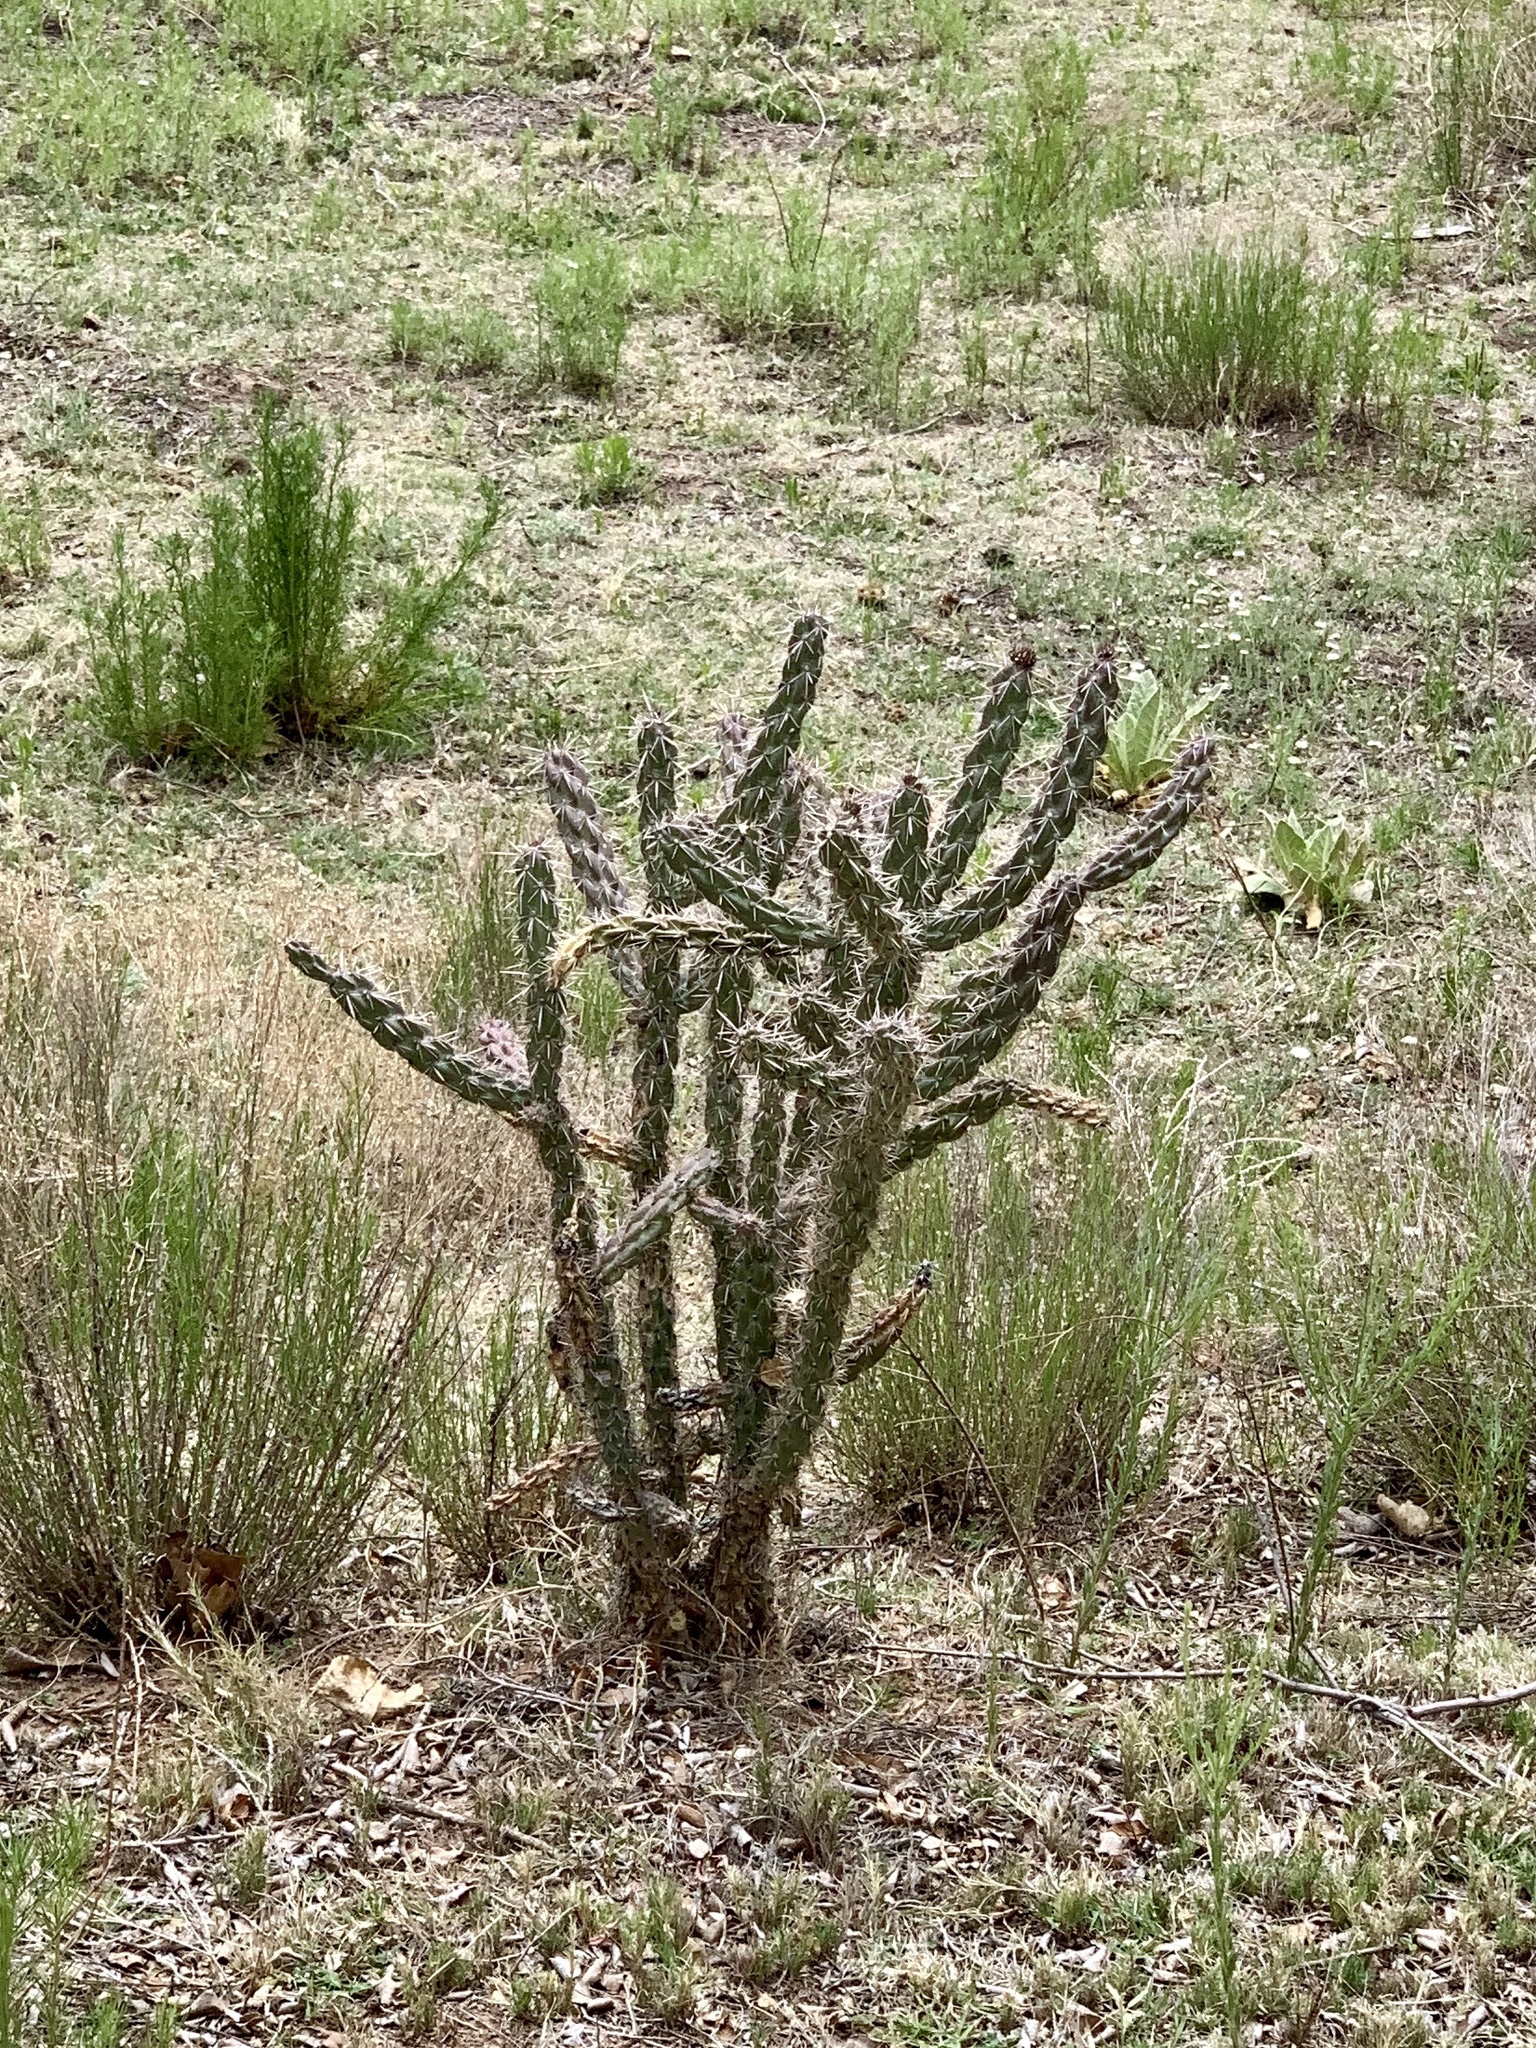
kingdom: Plantae
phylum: Tracheophyta
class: Magnoliopsida
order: Caryophyllales
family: Cactaceae
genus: Cylindropuntia
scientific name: Cylindropuntia imbricata
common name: Candelabrum cactus
